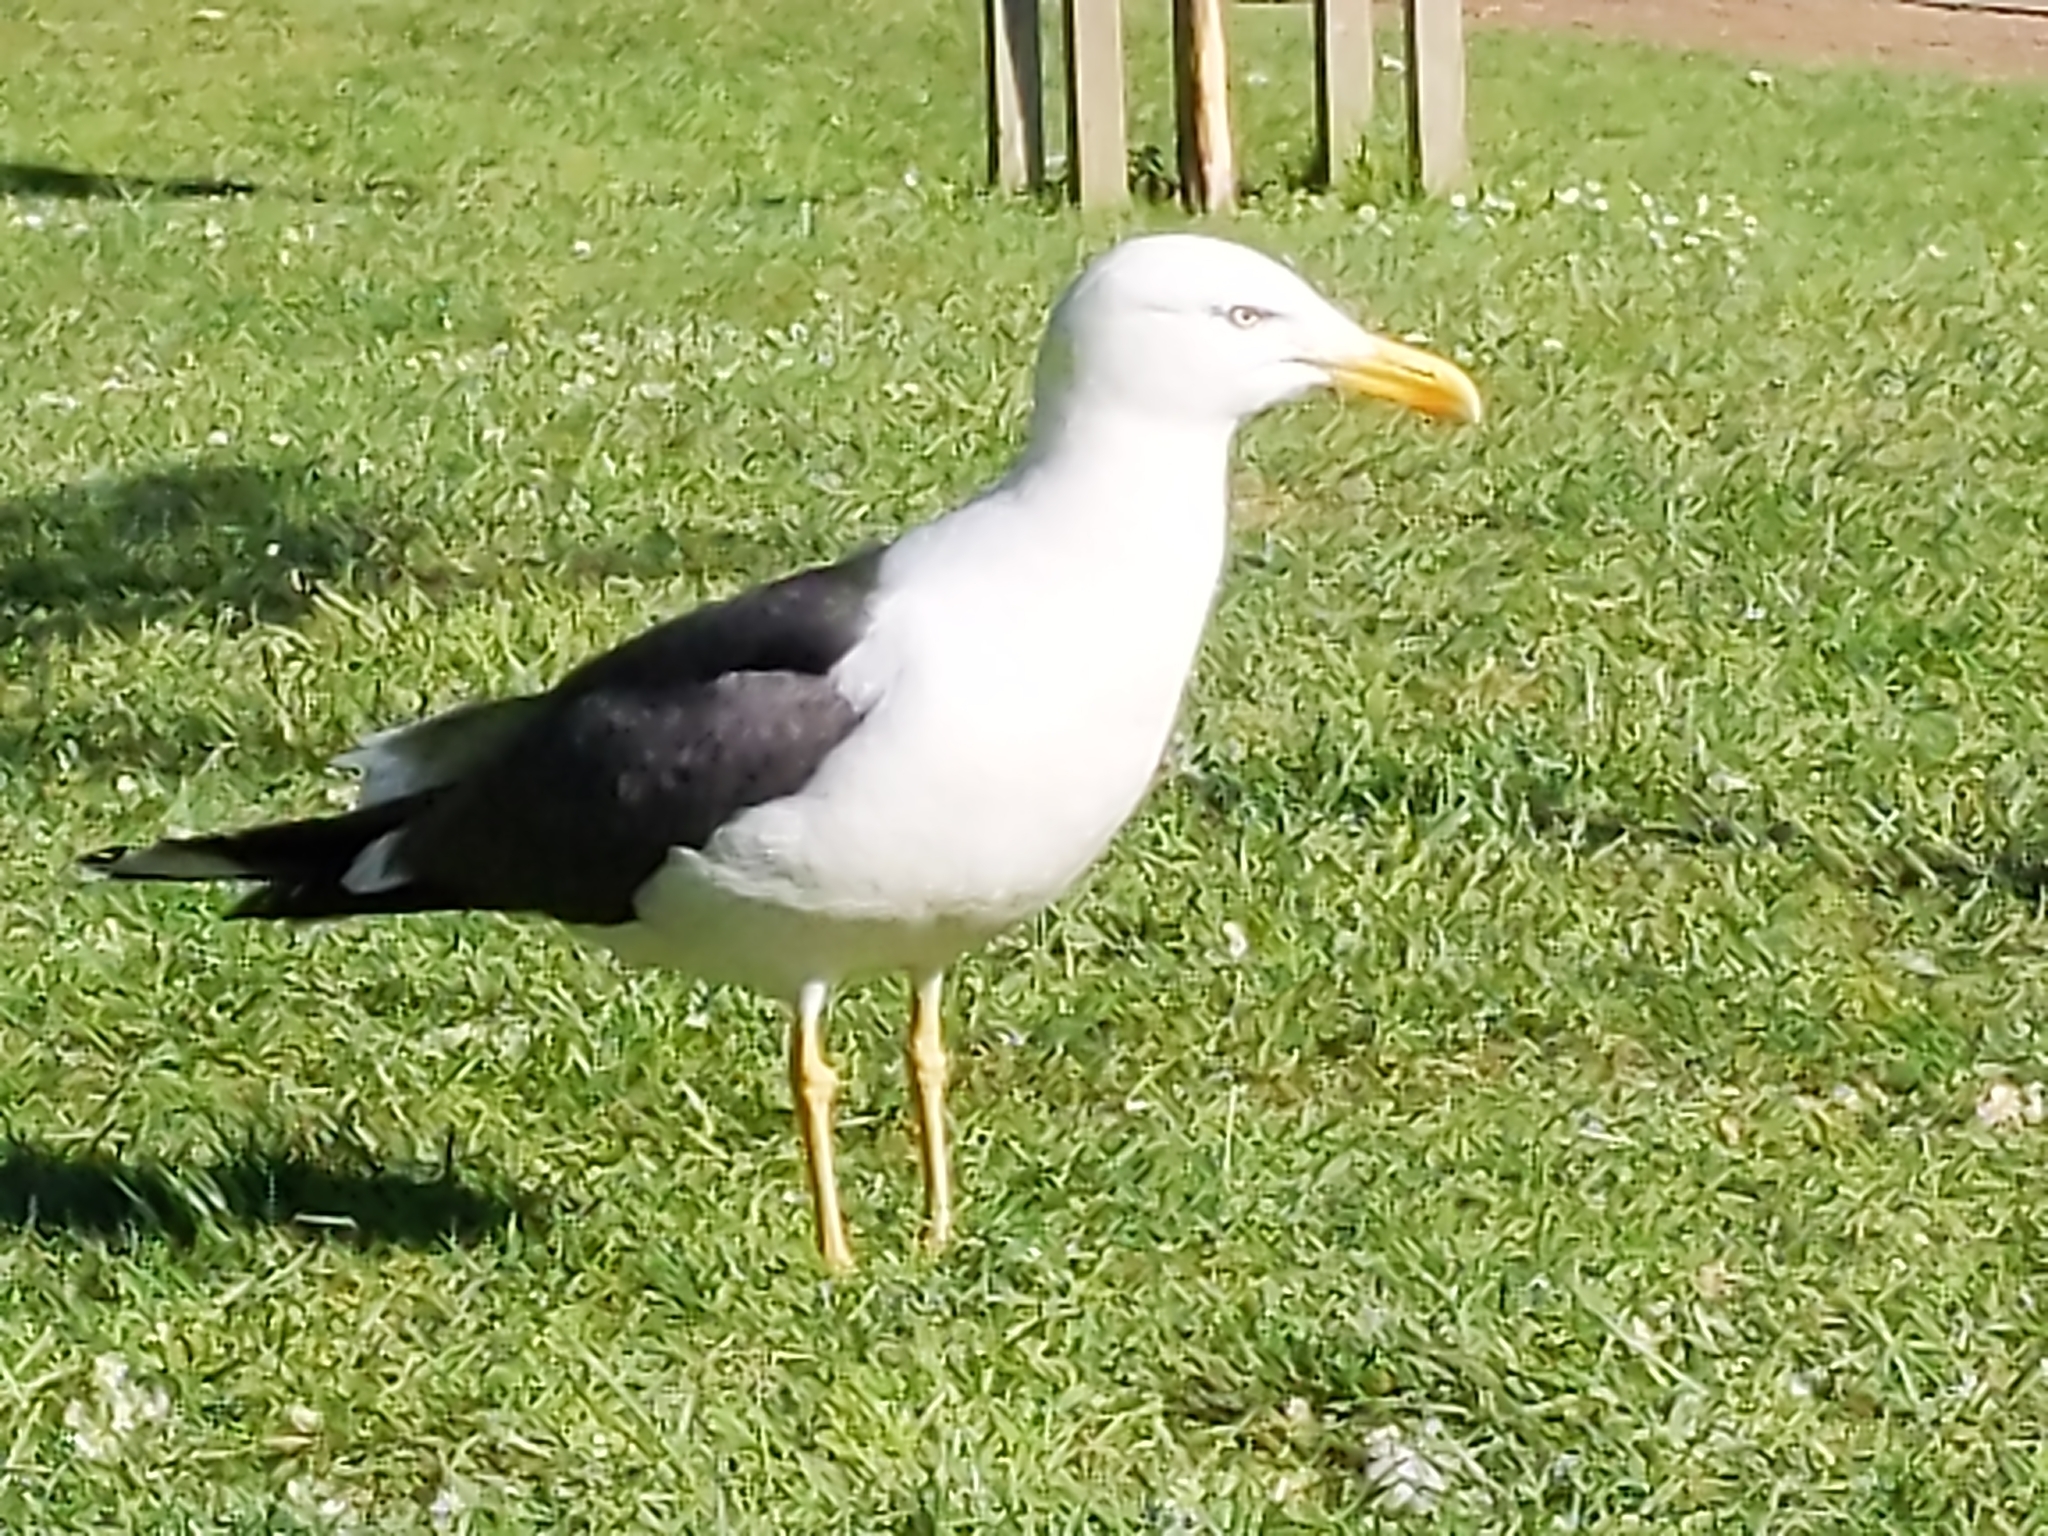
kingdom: Animalia
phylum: Chordata
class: Aves
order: Charadriiformes
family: Laridae
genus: Larus
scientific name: Larus fuscus
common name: Lesser black-backed gull
